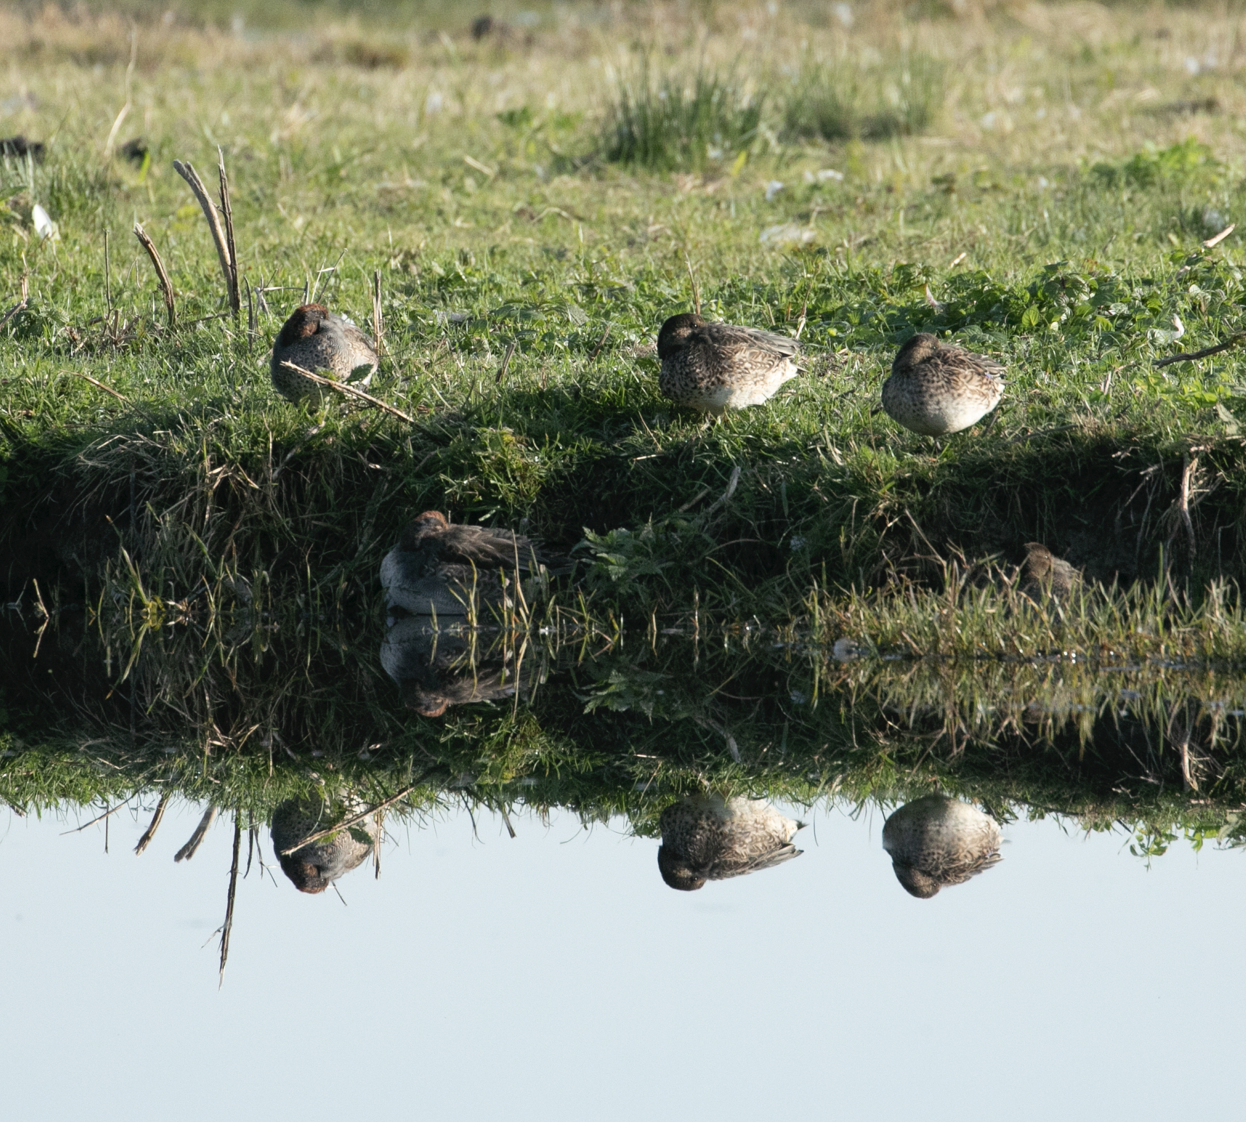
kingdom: Animalia
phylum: Chordata
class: Aves
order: Anseriformes
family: Anatidae
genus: Anas
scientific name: Anas crecca
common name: Eurasian teal
